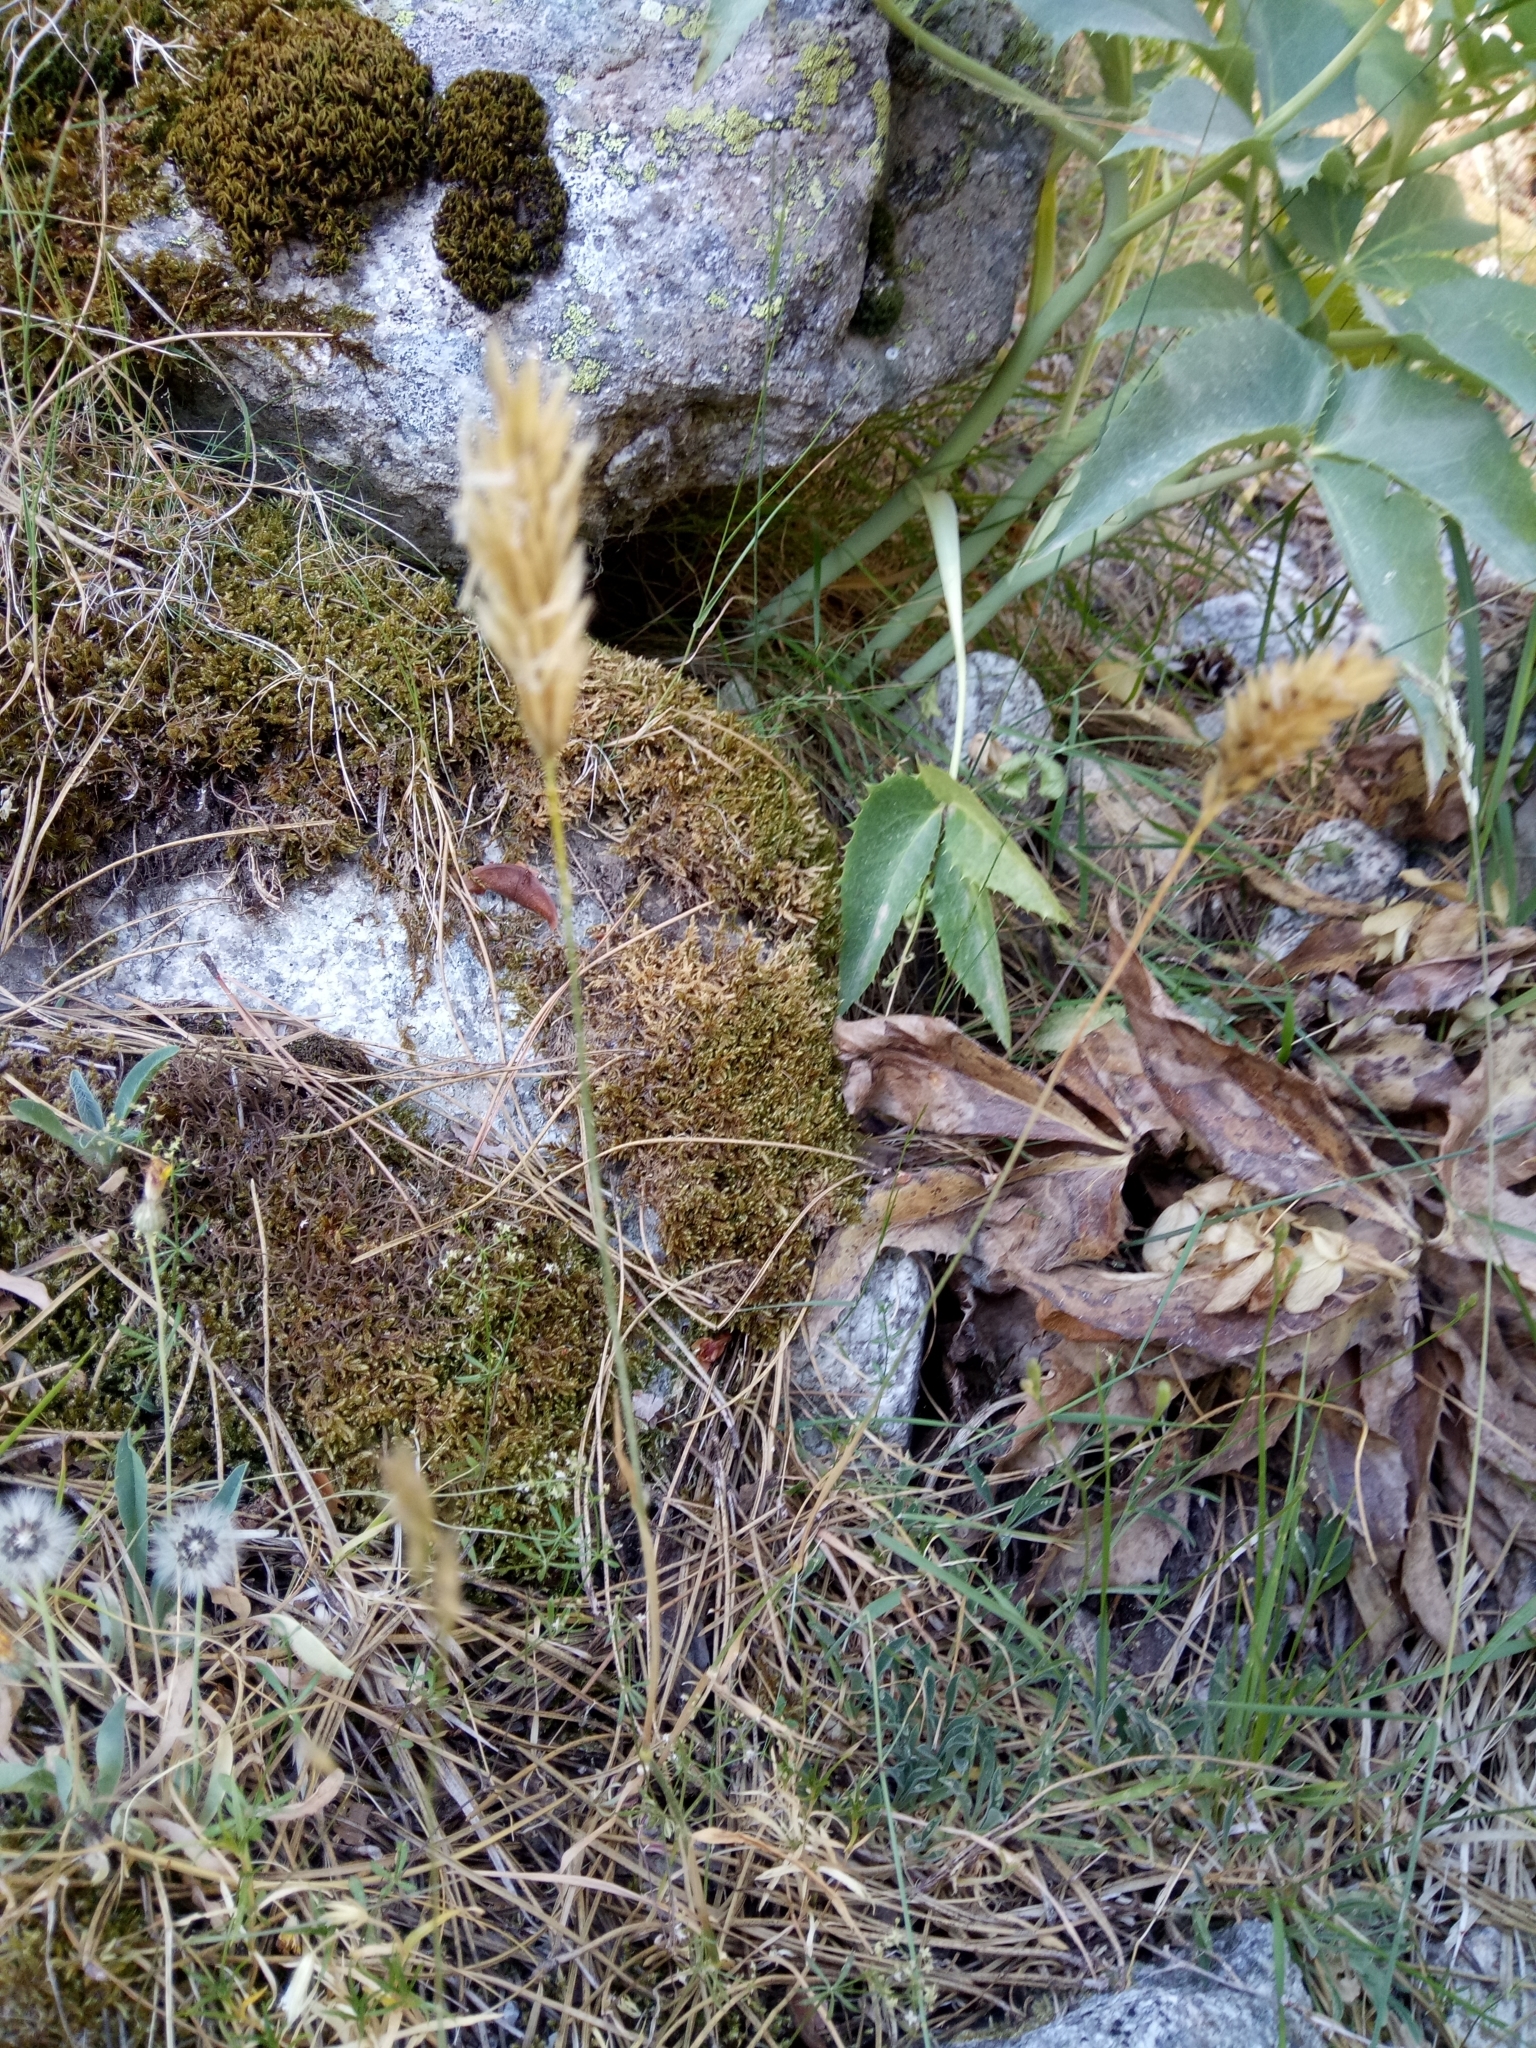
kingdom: Plantae
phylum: Tracheophyta
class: Liliopsida
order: Poales
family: Poaceae
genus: Anthoxanthum
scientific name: Anthoxanthum odoratum
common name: Sweet vernalgrass
